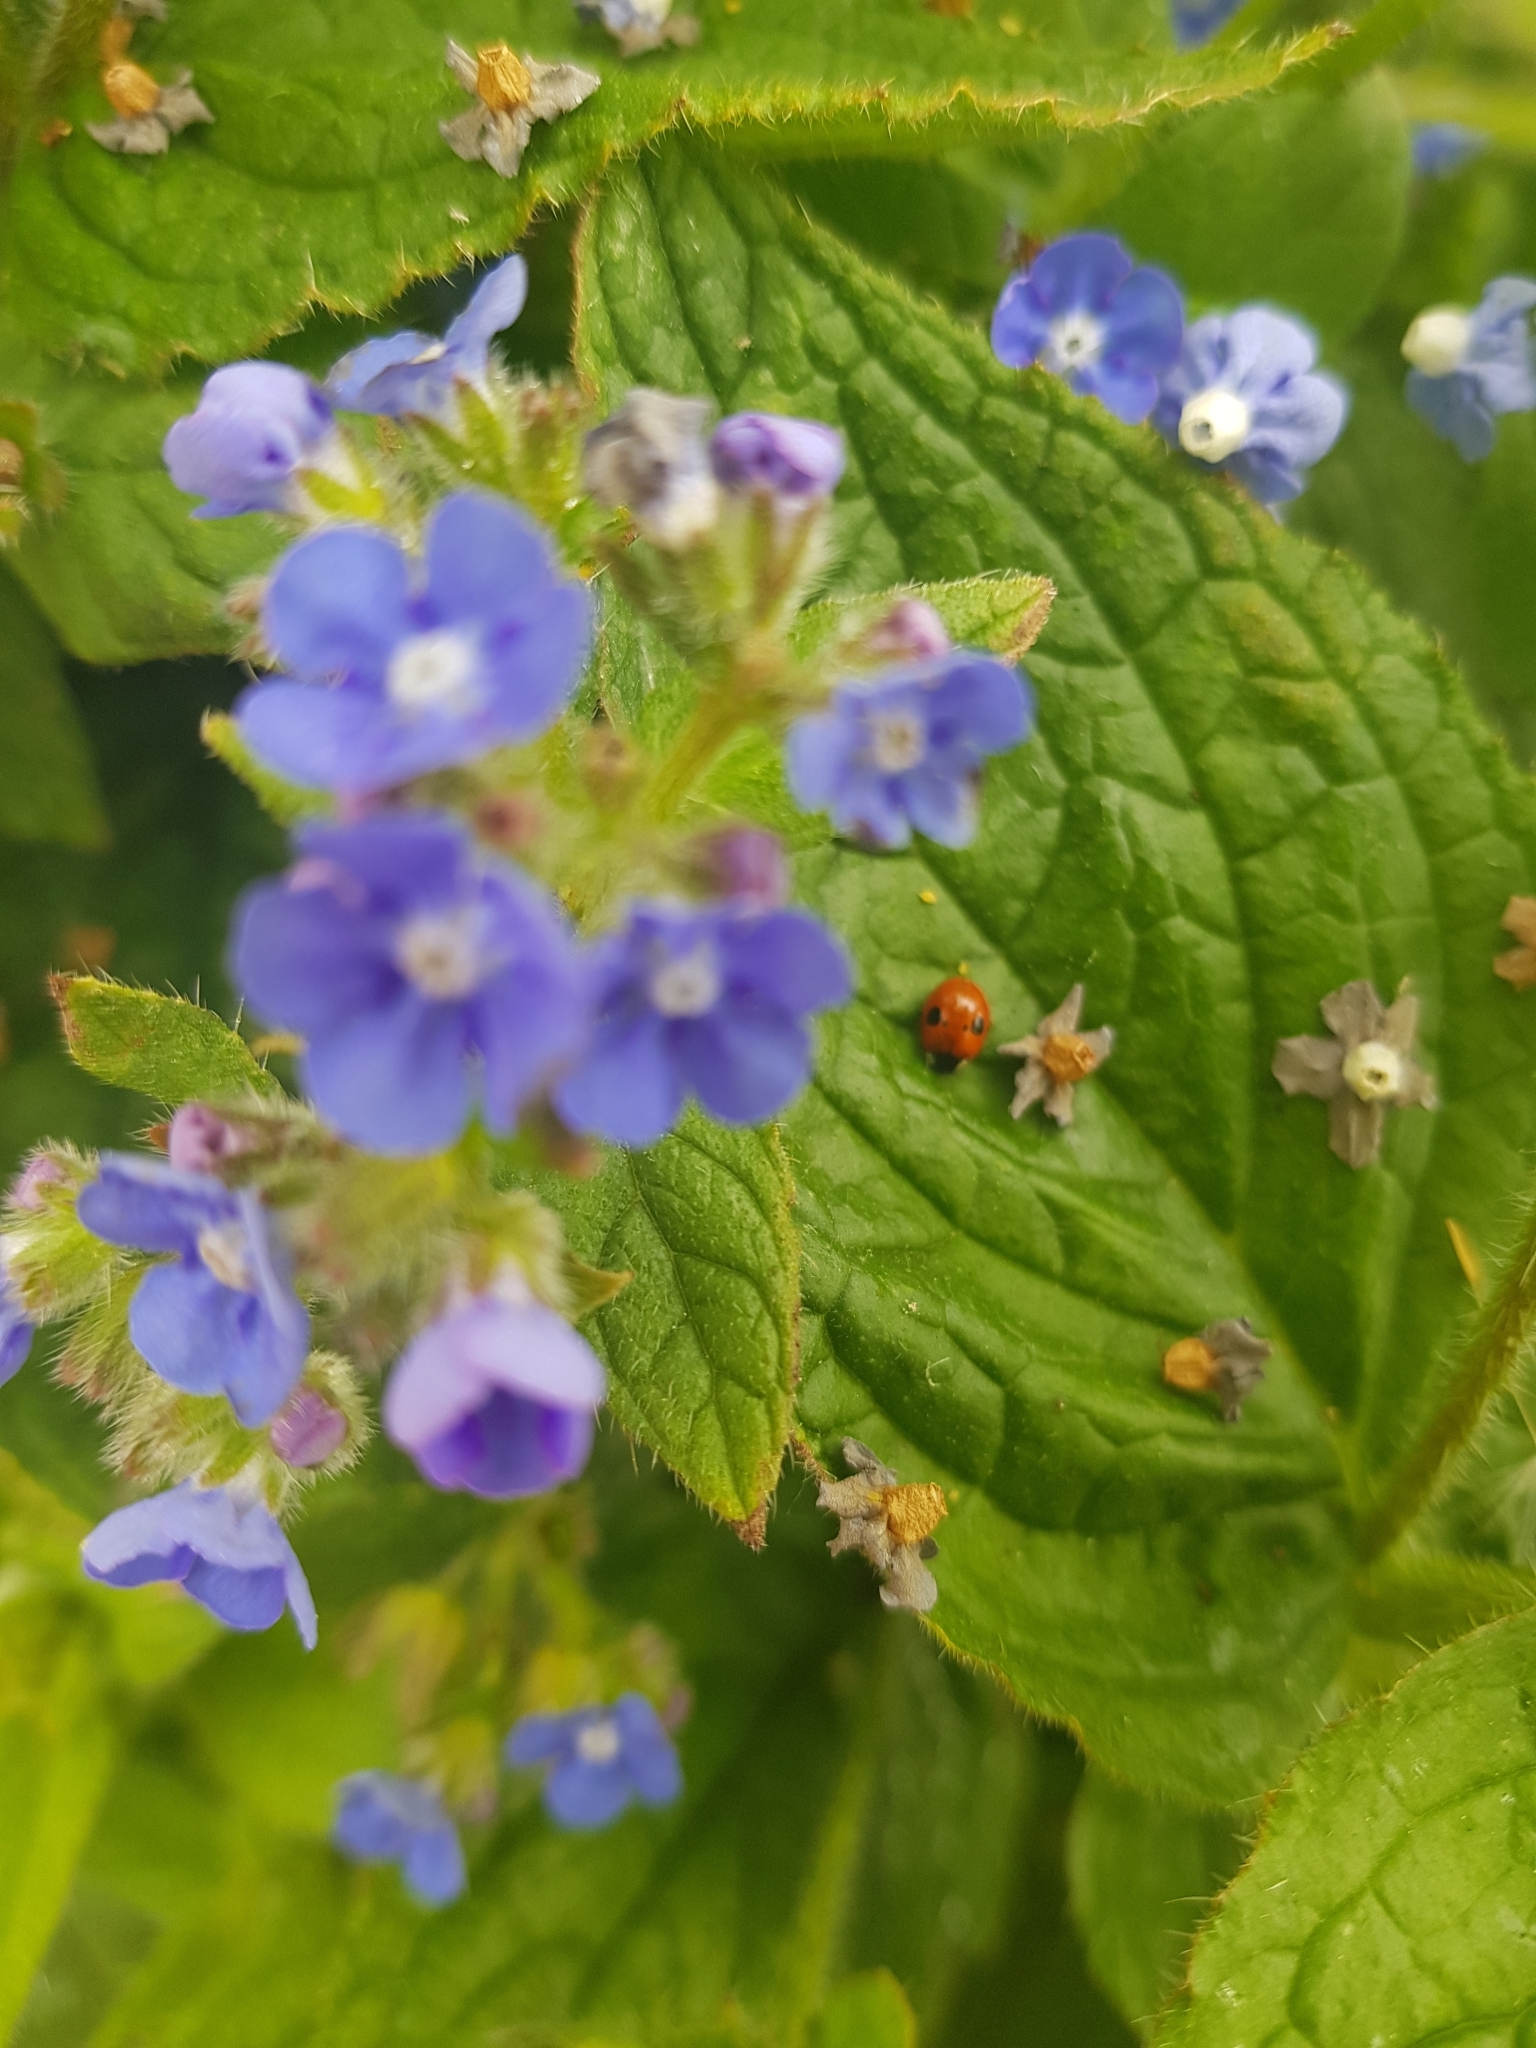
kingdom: Animalia
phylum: Arthropoda
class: Insecta
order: Coleoptera
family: Coccinellidae
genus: Adalia
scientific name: Adalia bipunctata
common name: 2-spot ladybird
